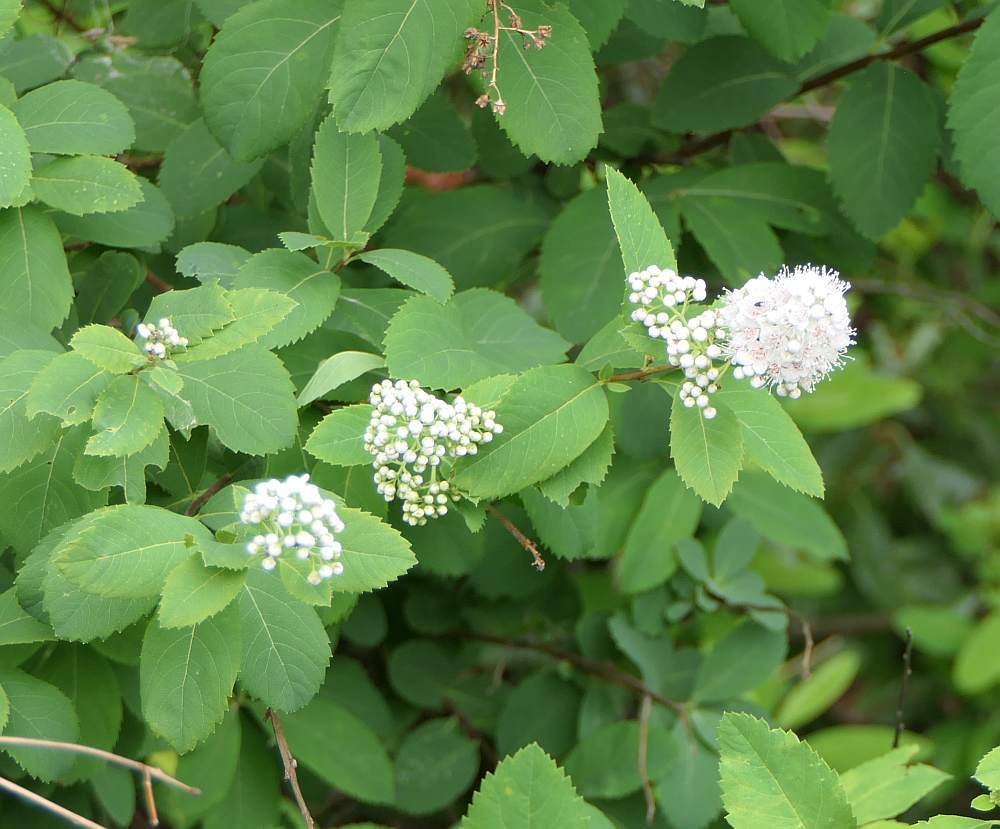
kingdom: Plantae
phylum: Tracheophyta
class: Magnoliopsida
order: Rosales
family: Rosaceae
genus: Spiraea
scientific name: Spiraea alba
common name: Pale bridewort
